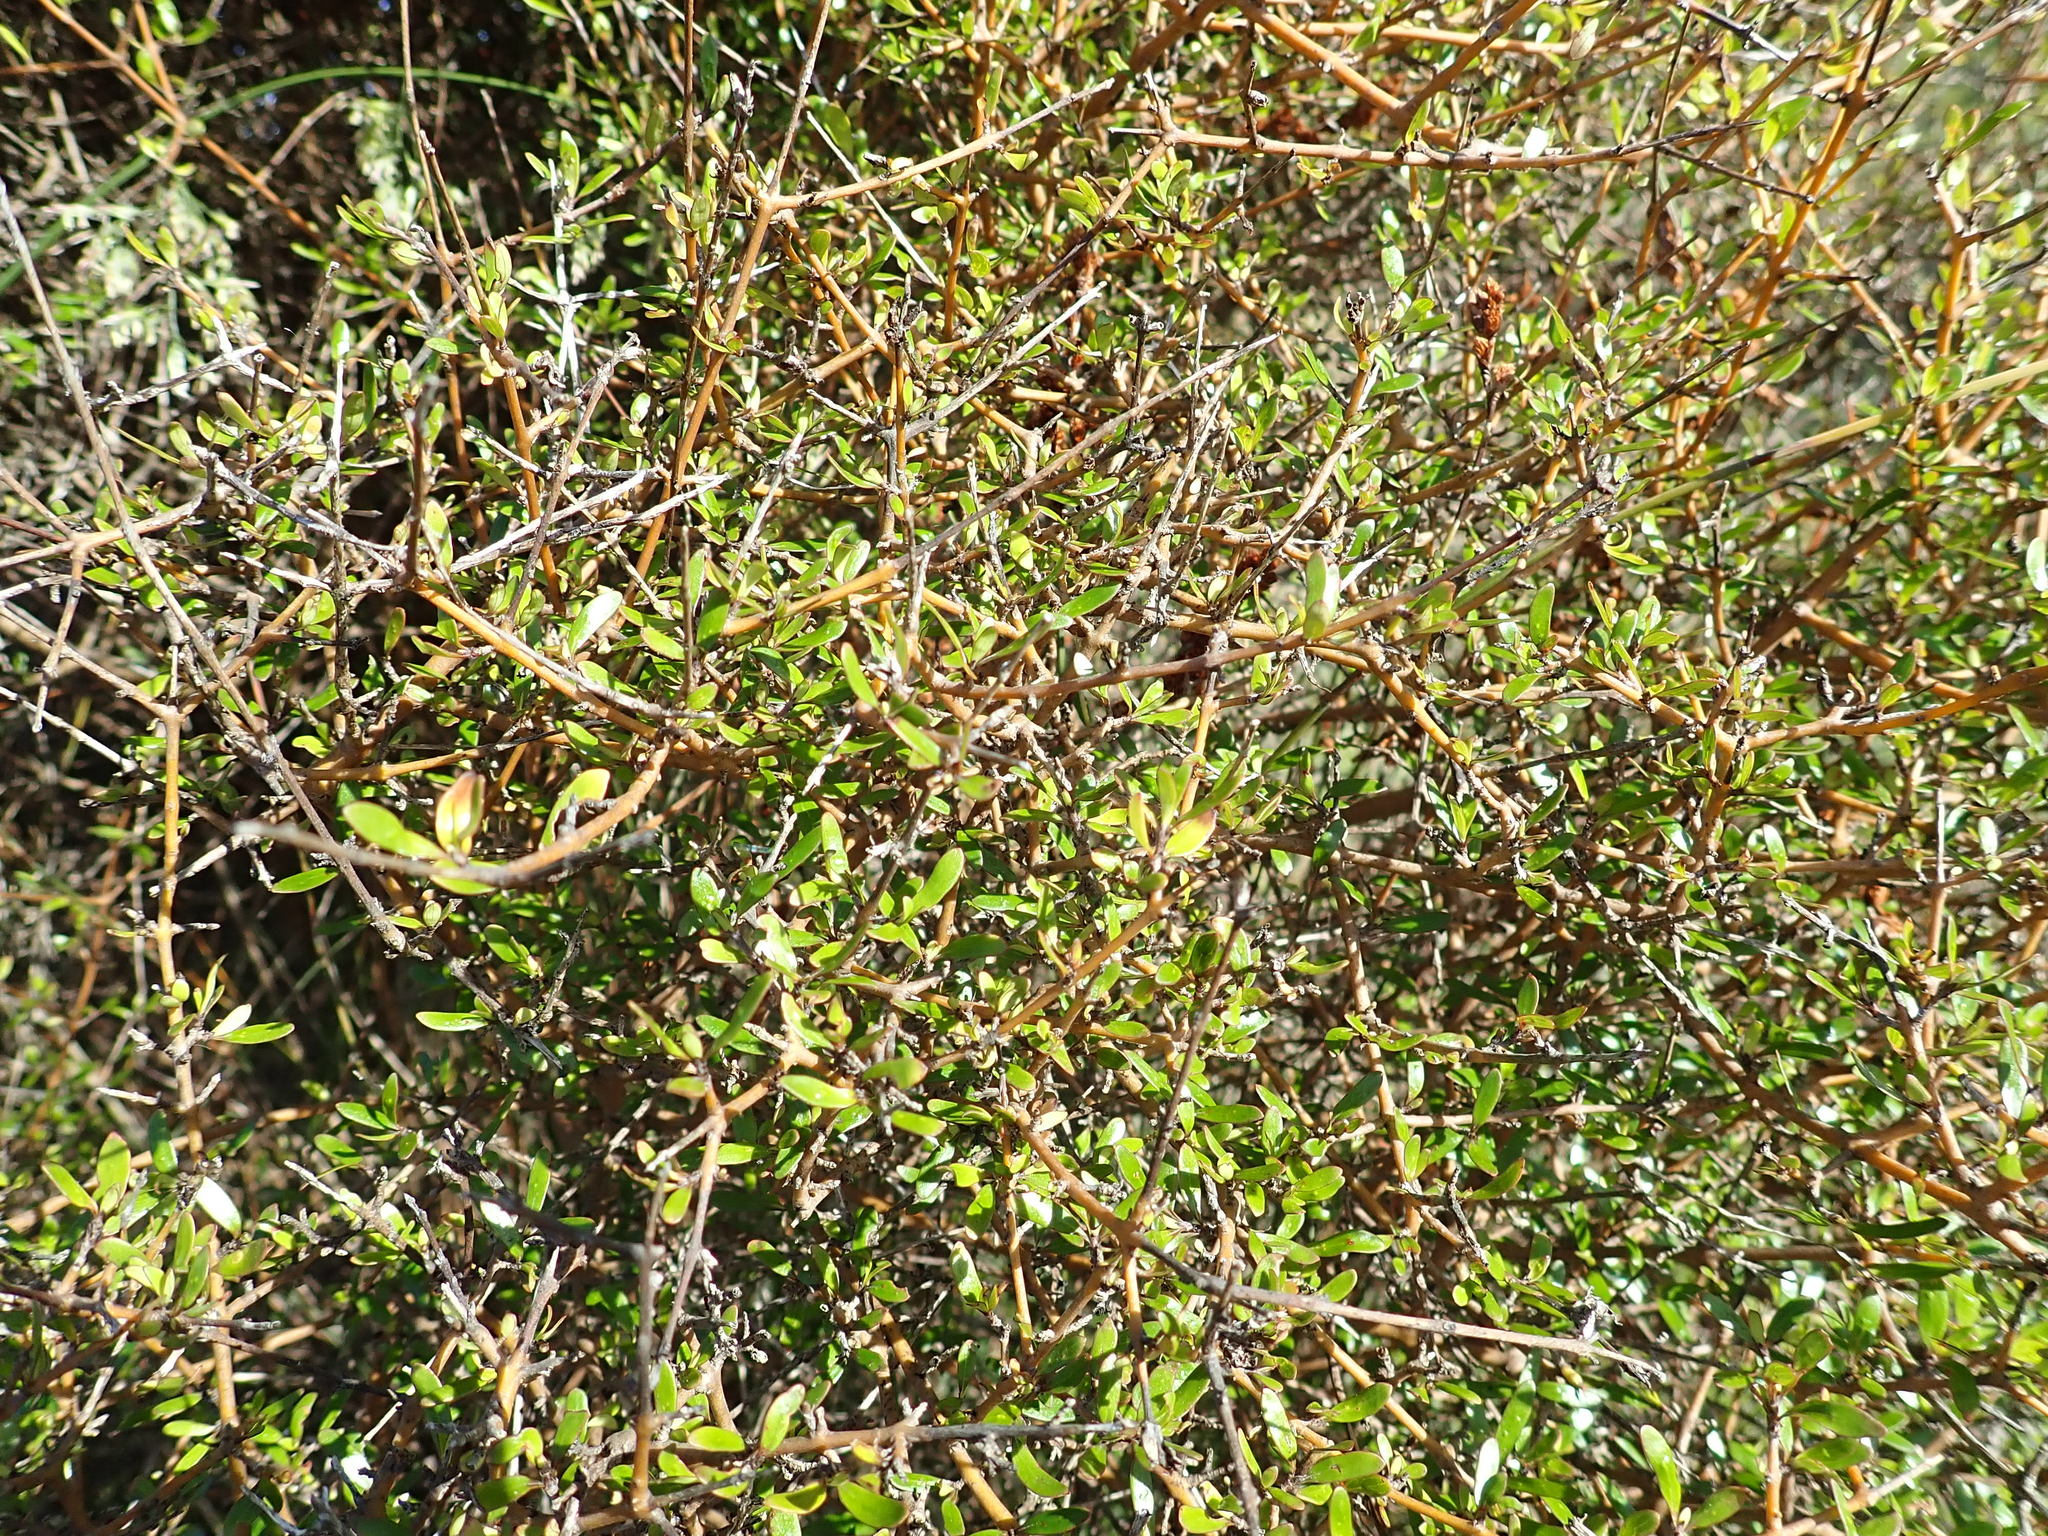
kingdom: Plantae
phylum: Tracheophyta
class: Magnoliopsida
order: Gentianales
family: Rubiaceae
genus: Coprosma
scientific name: Coprosma propinqua
